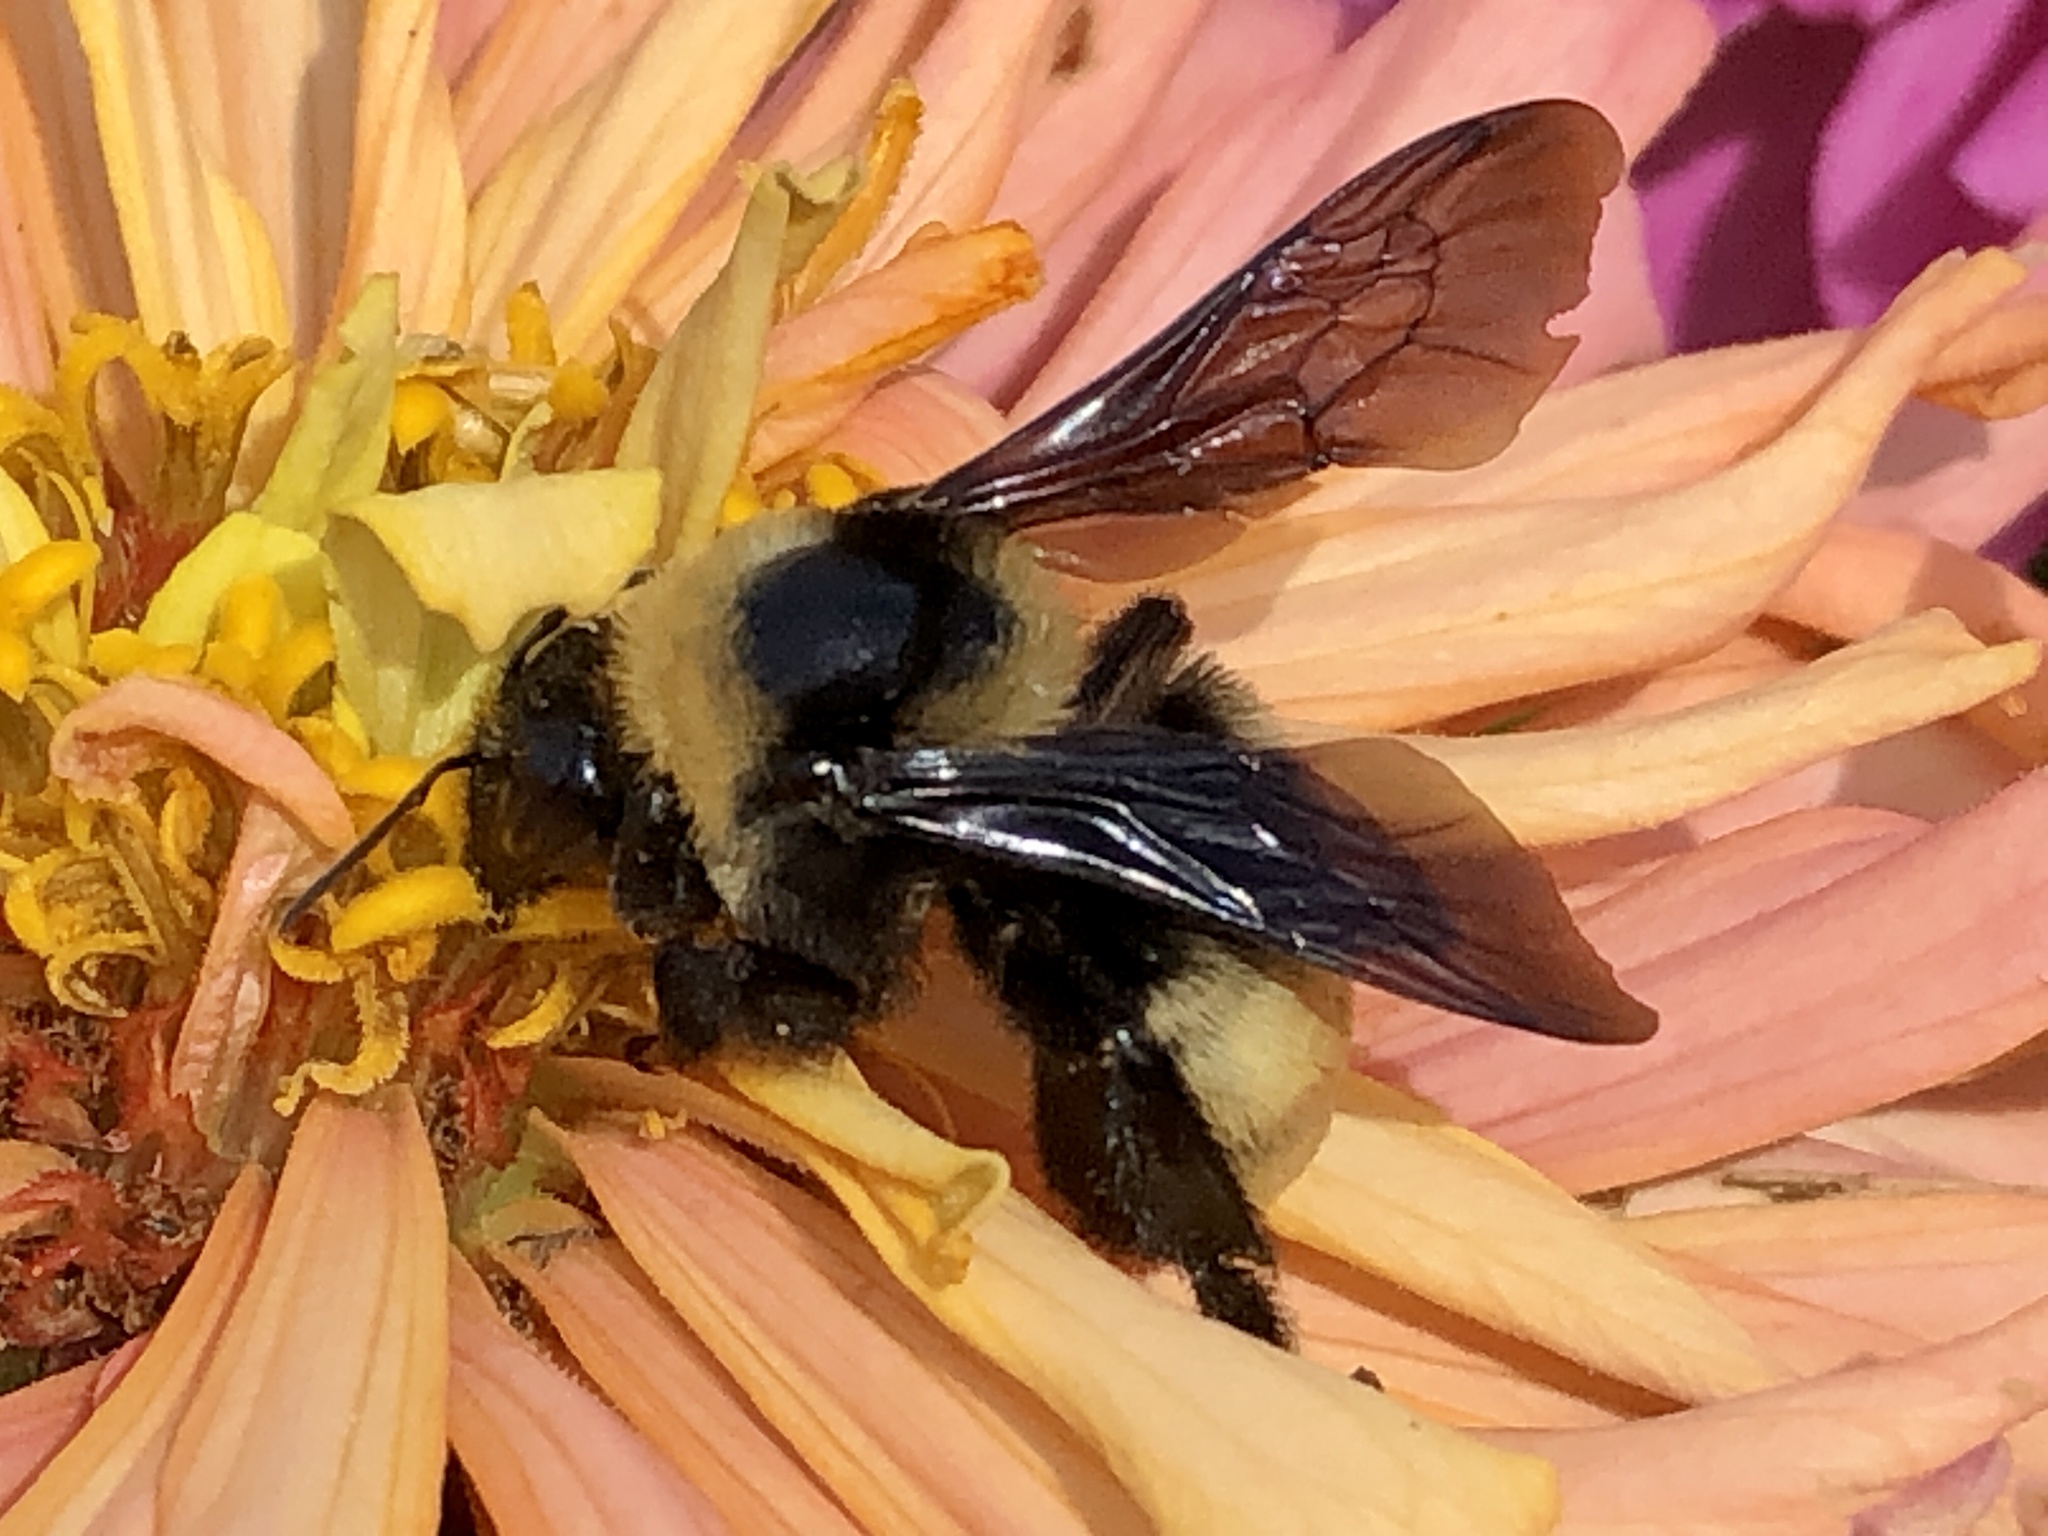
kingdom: Animalia
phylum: Arthropoda
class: Insecta
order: Hymenoptera
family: Apidae
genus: Bombus
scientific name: Bombus pensylvanicus
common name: Bumble bee
